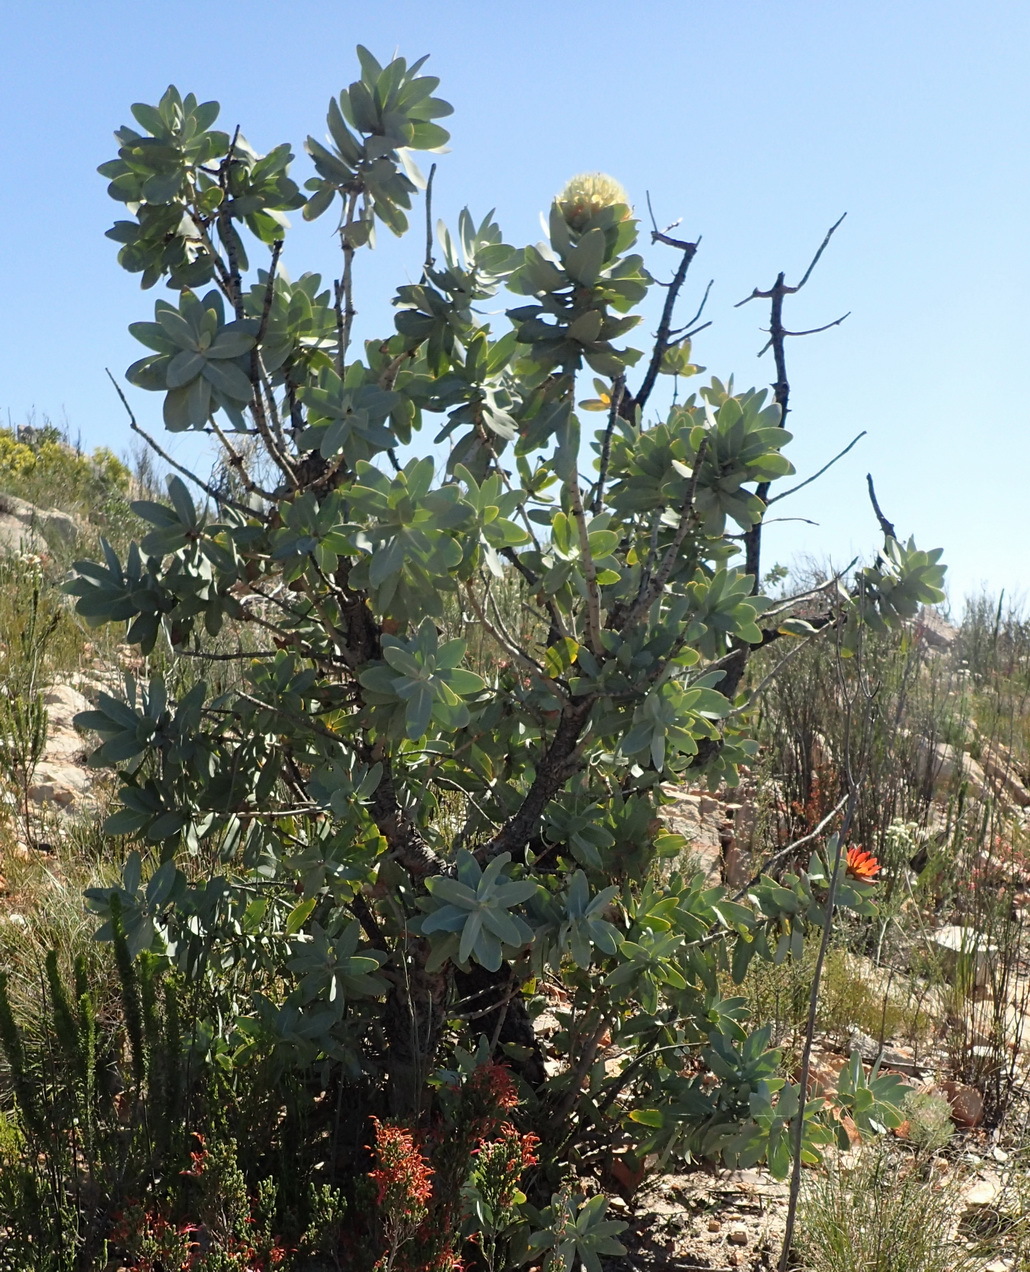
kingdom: Plantae
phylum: Tracheophyta
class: Magnoliopsida
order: Proteales
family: Proteaceae
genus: Protea
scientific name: Protea nitida
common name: Tree protea
